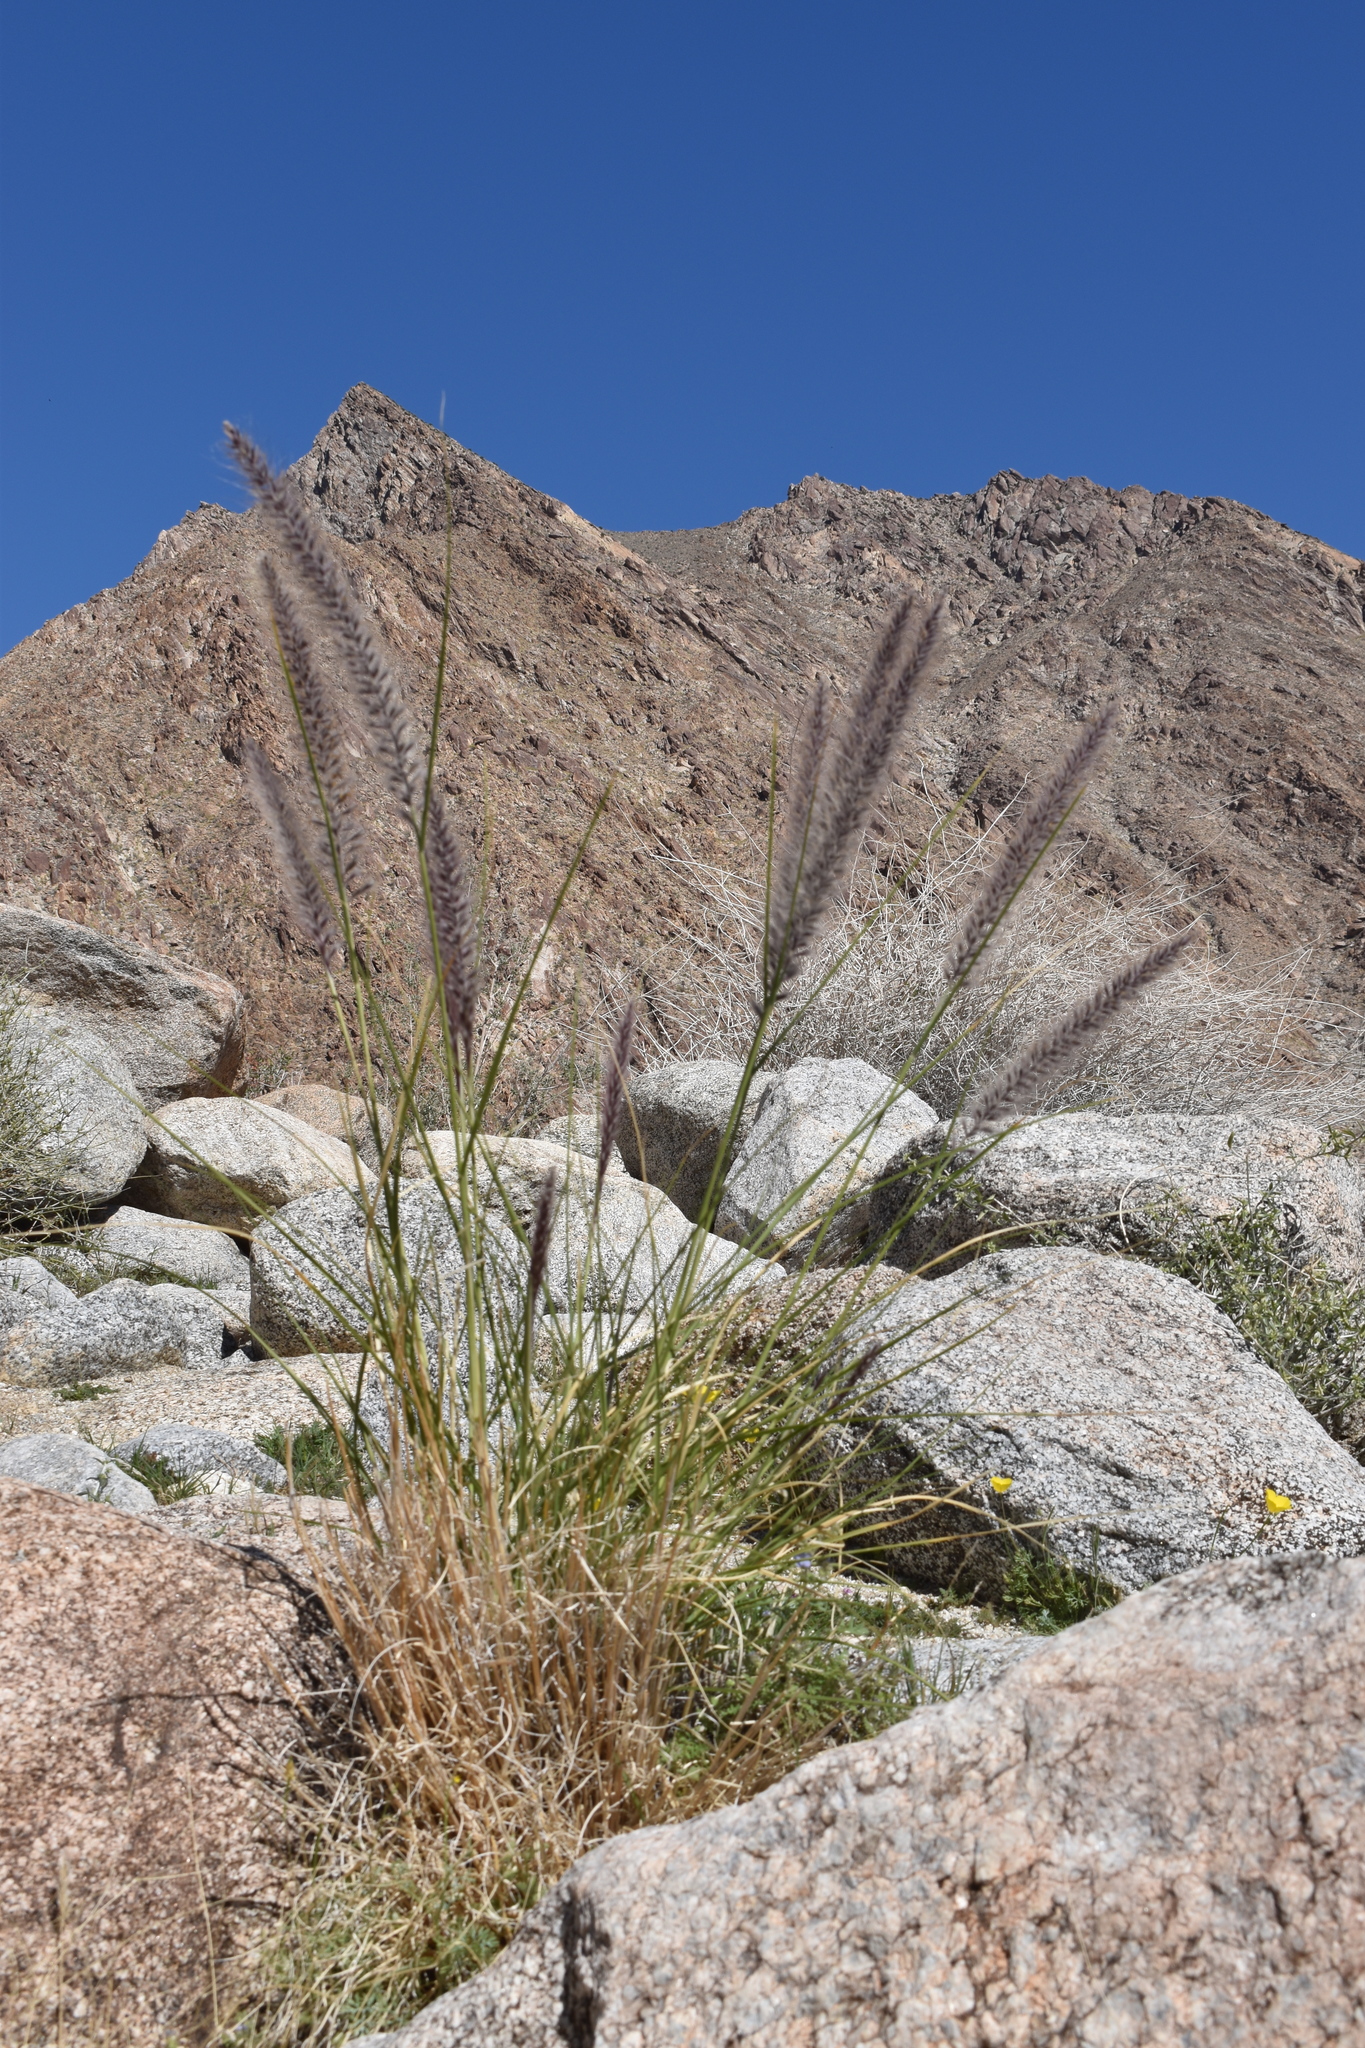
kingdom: Plantae
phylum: Tracheophyta
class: Liliopsida
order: Poales
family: Poaceae
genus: Cenchrus
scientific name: Cenchrus setaceus
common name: Crimson fountaingrass
